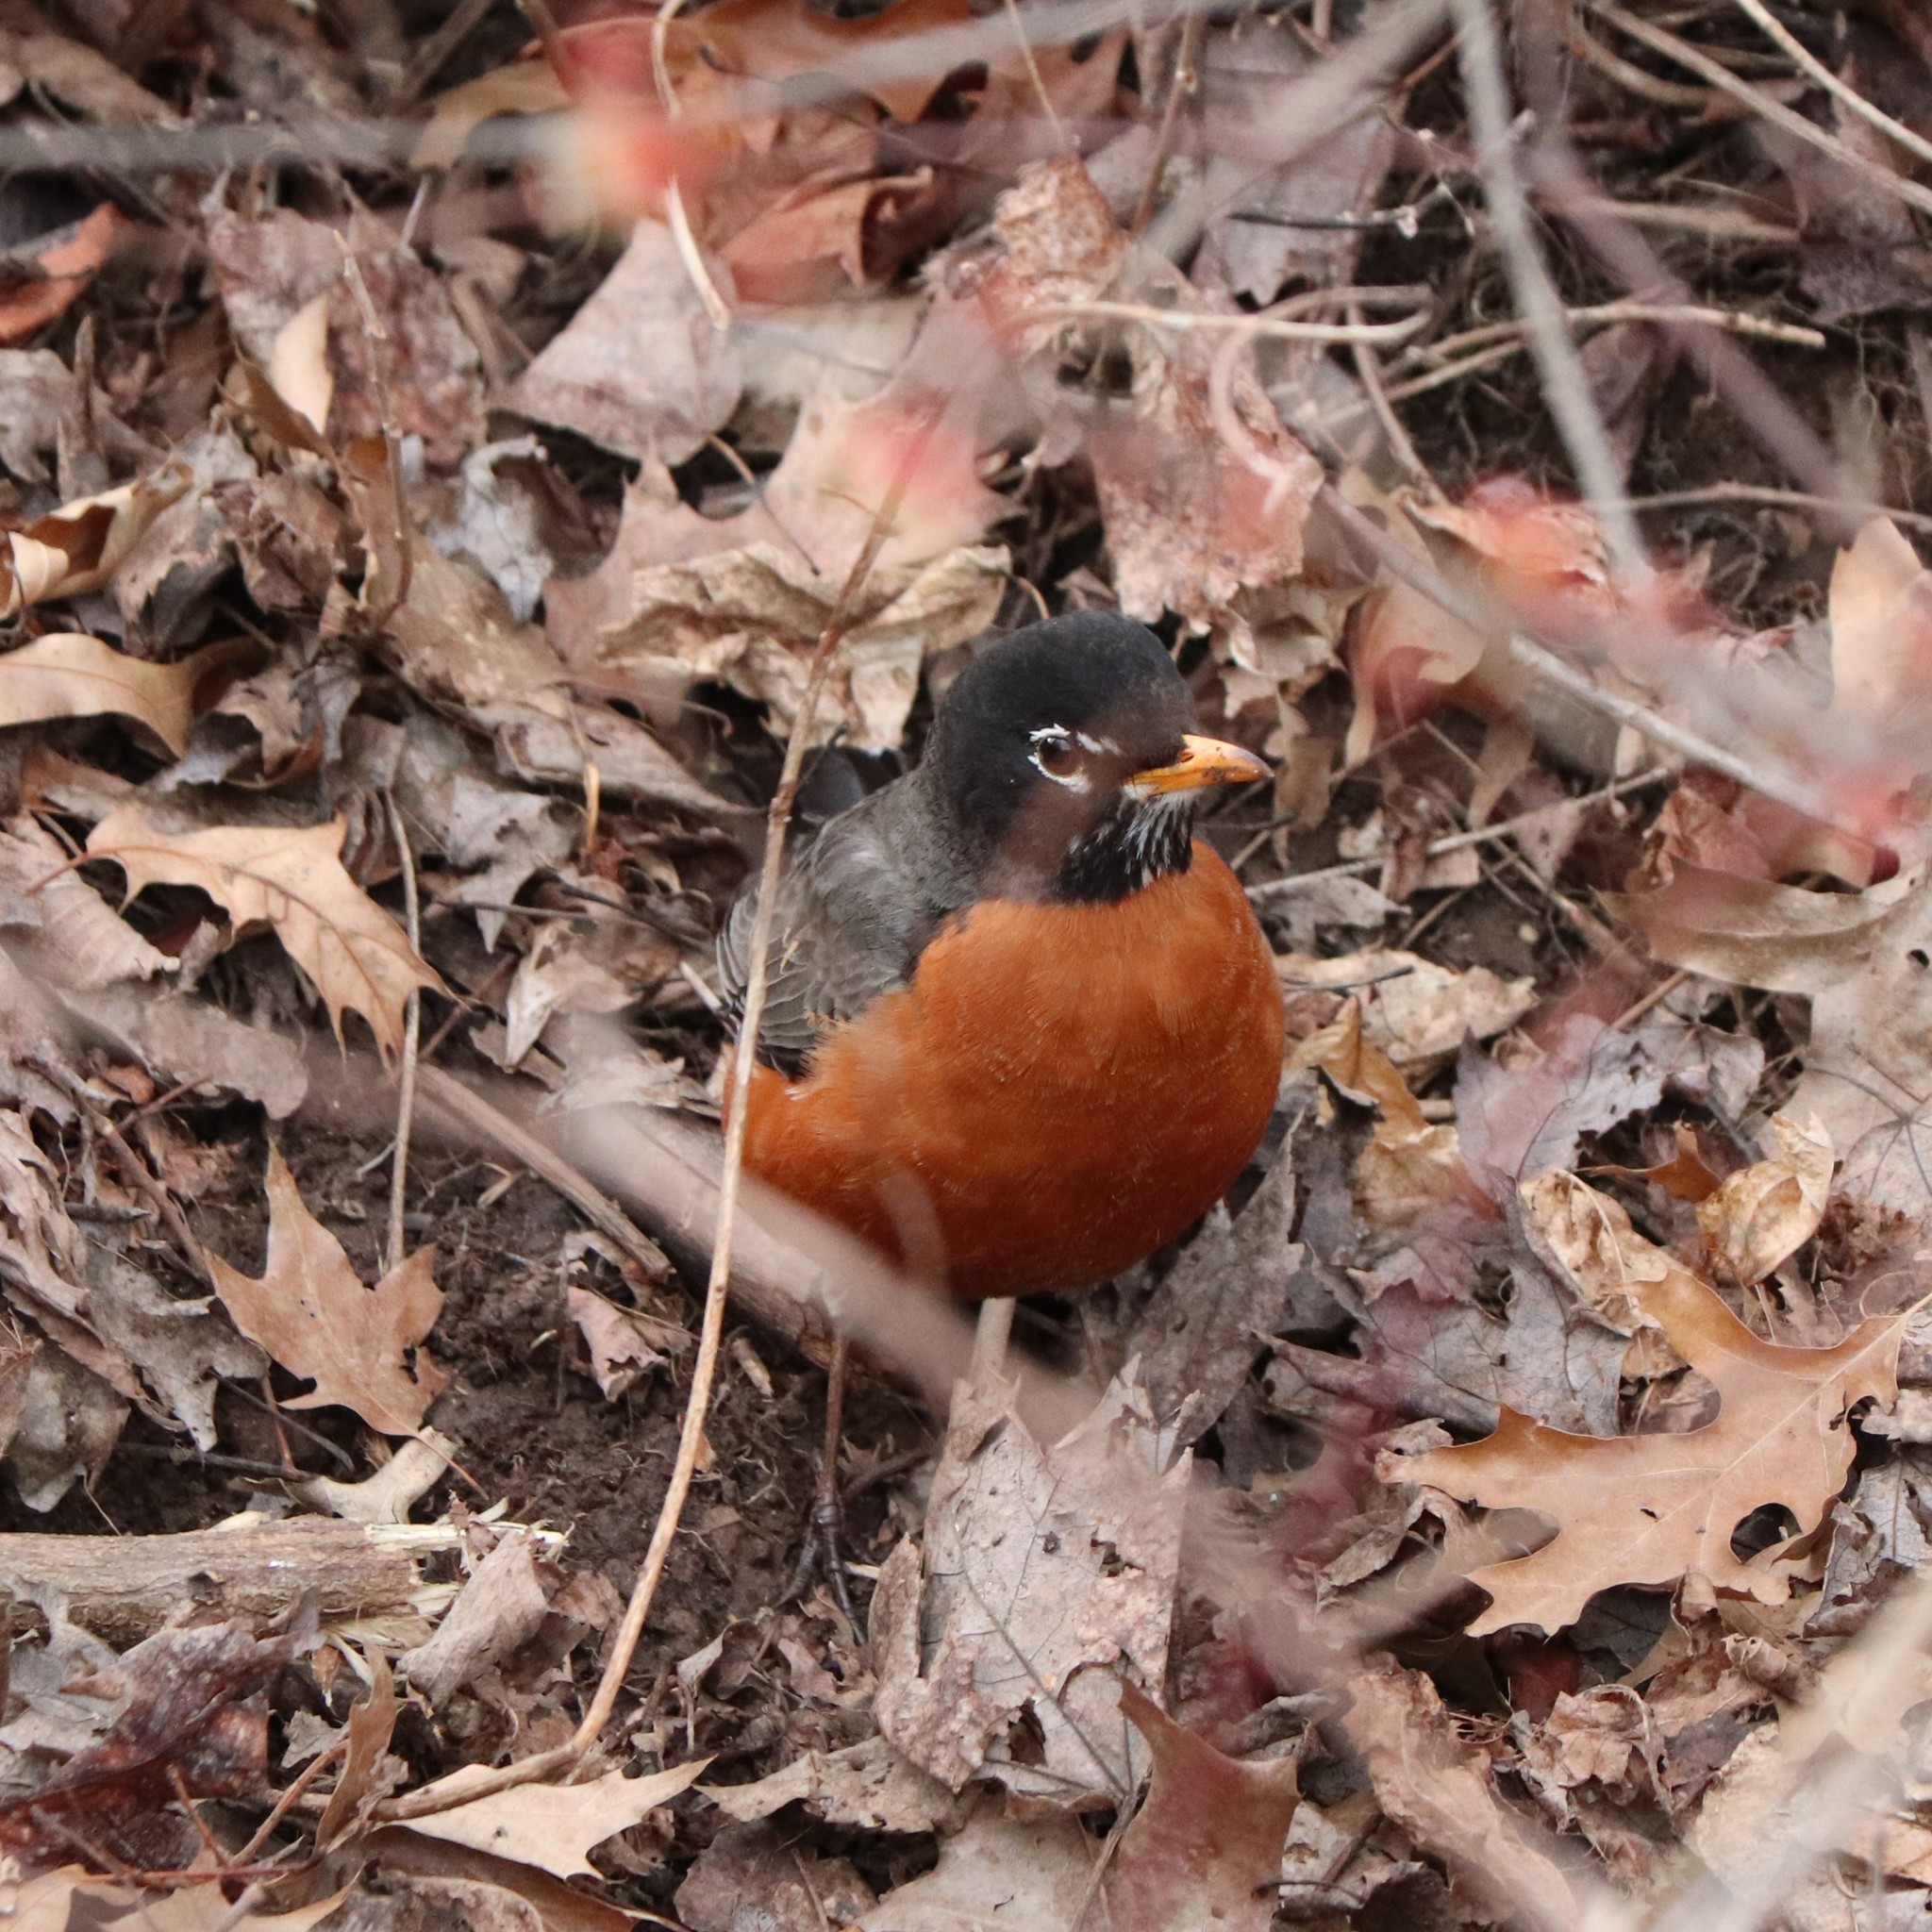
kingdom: Animalia
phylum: Chordata
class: Aves
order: Passeriformes
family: Turdidae
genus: Turdus
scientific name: Turdus migratorius
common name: American robin
